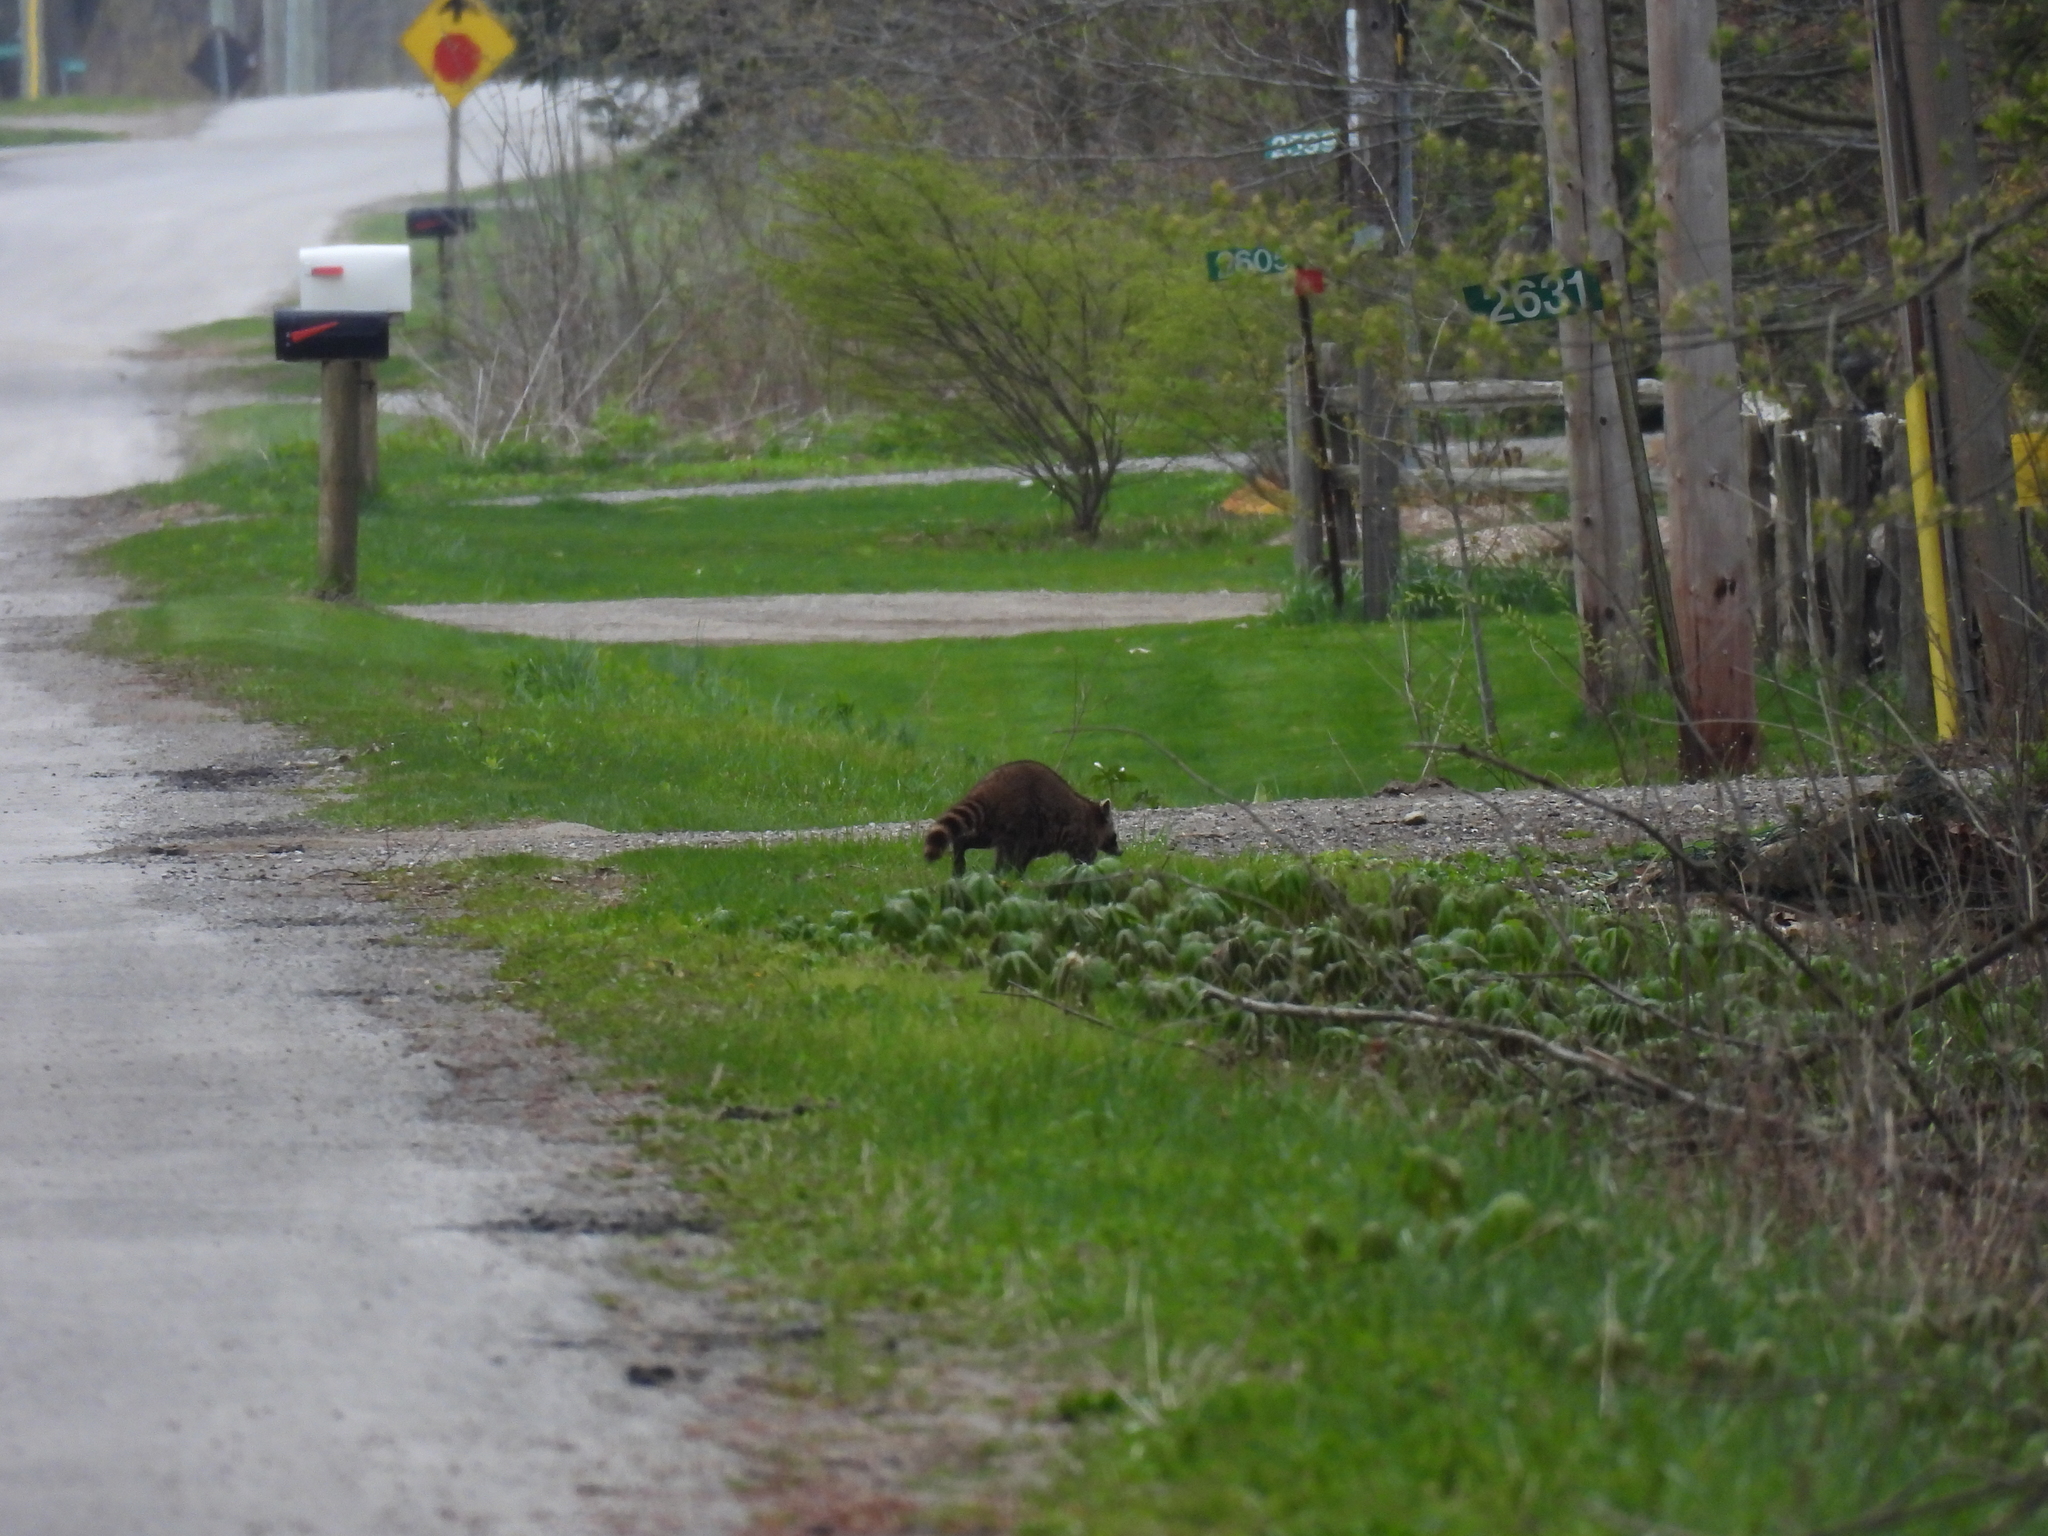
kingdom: Animalia
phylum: Chordata
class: Mammalia
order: Carnivora
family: Procyonidae
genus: Procyon
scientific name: Procyon lotor
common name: Raccoon
